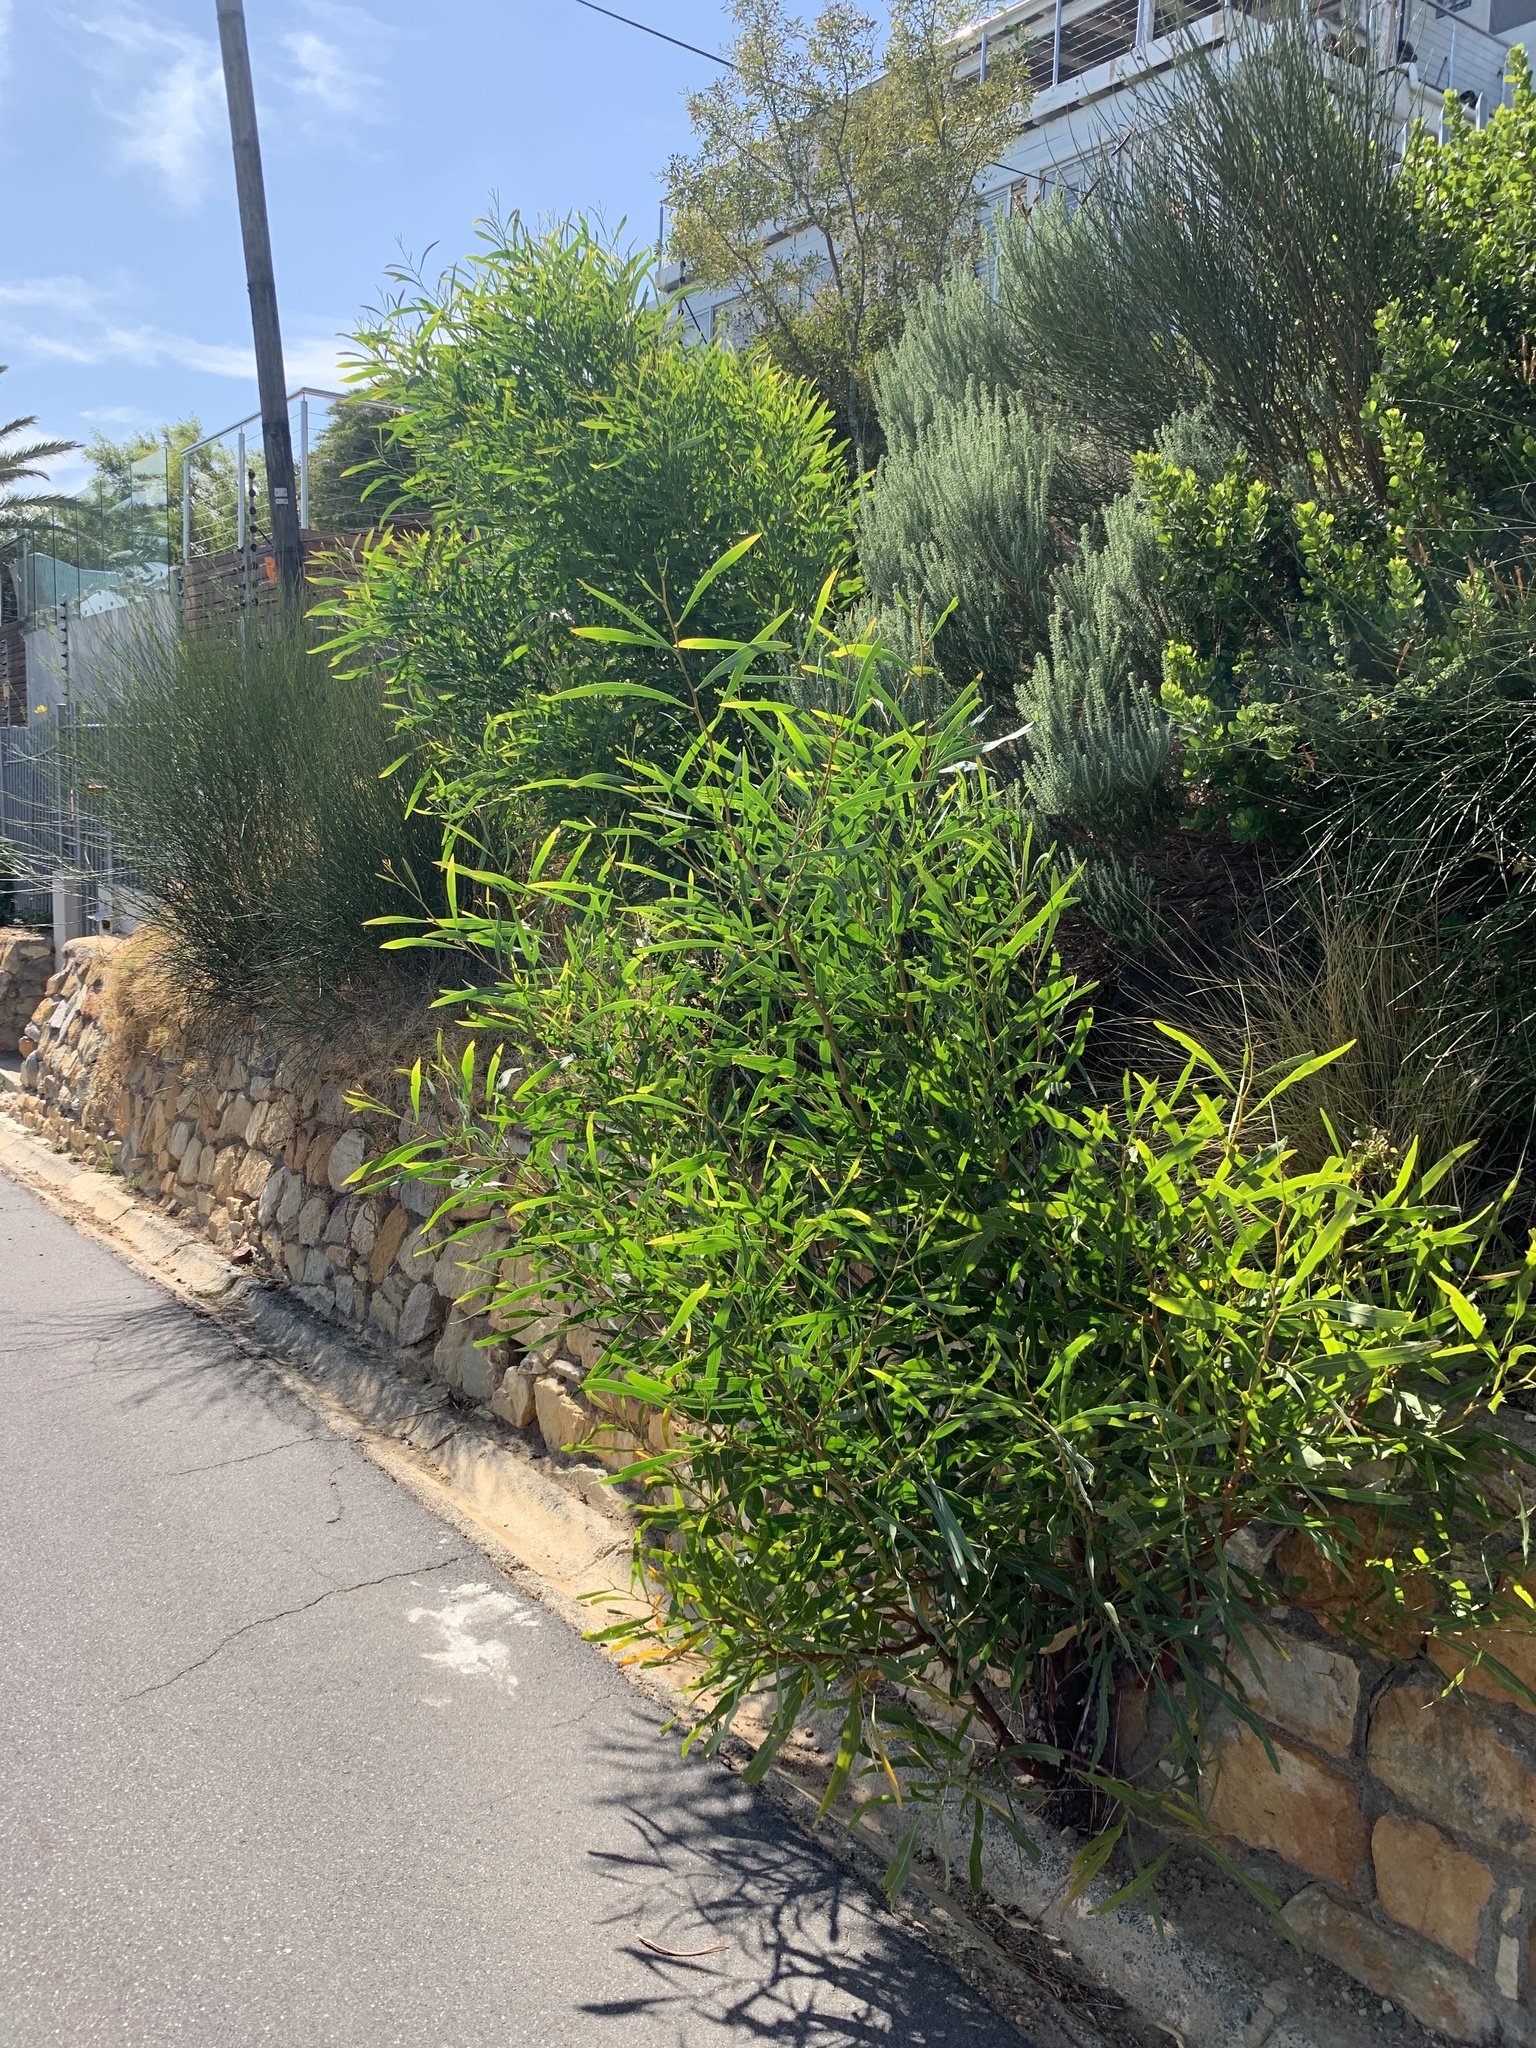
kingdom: Plantae
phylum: Tracheophyta
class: Magnoliopsida
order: Fabales
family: Fabaceae
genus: Acacia
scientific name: Acacia saligna
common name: Orange wattle
